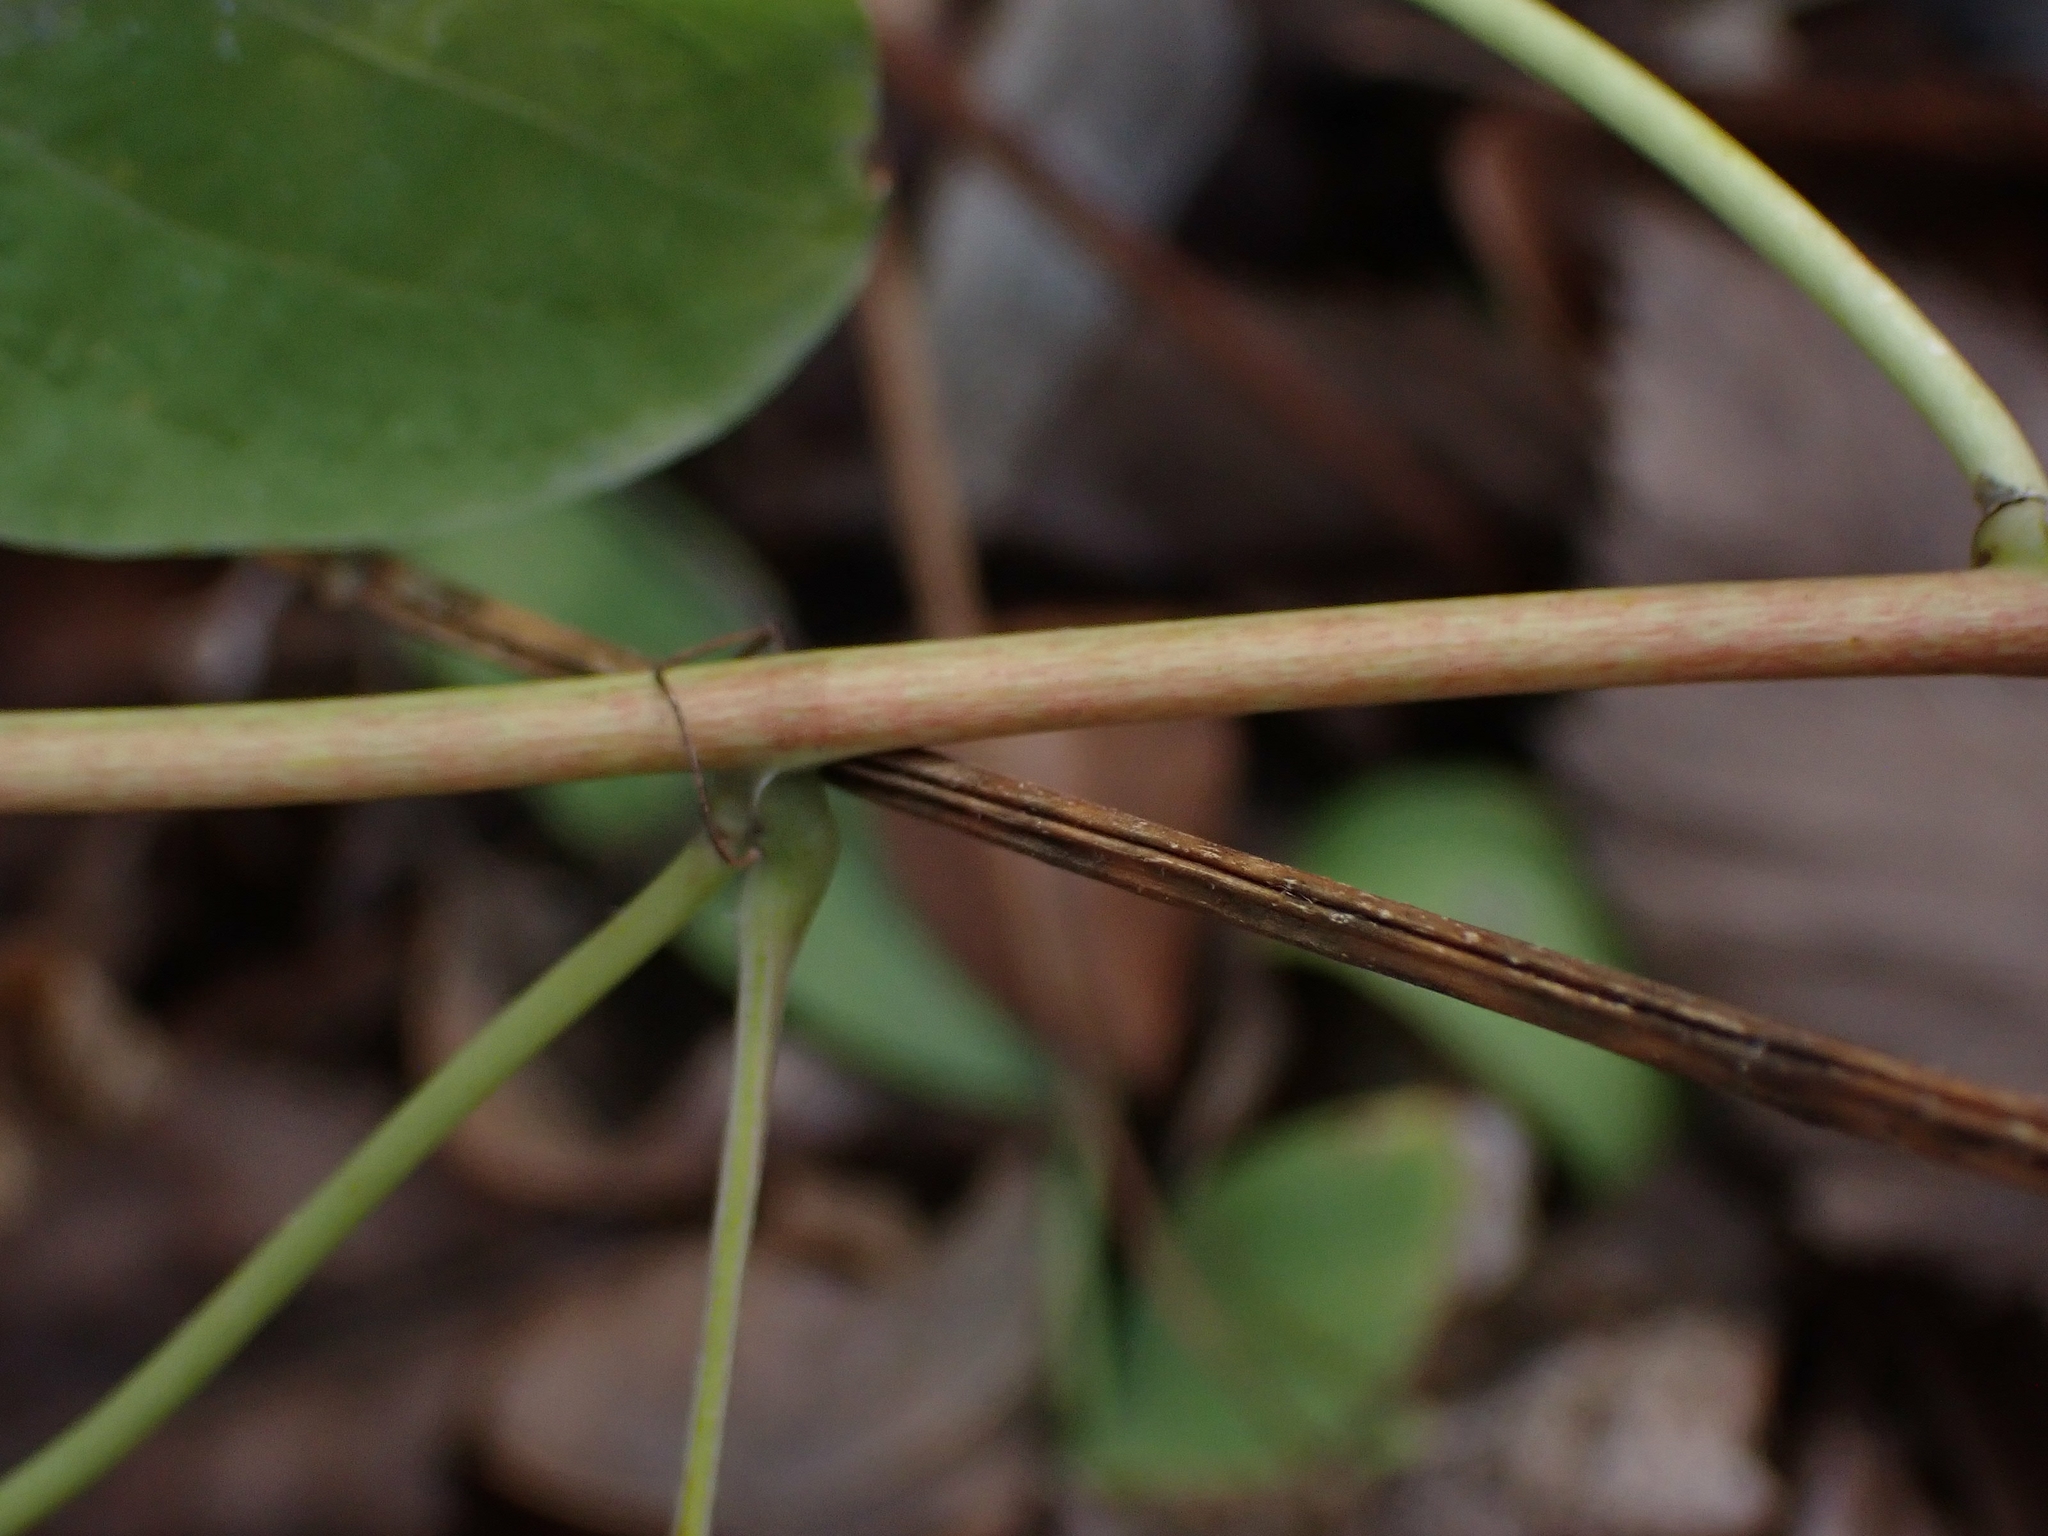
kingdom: Plantae
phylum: Tracheophyta
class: Liliopsida
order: Liliales
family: Smilacaceae
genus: Smilax
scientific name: Smilax lasioneura
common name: Blue ridge carrionflower
